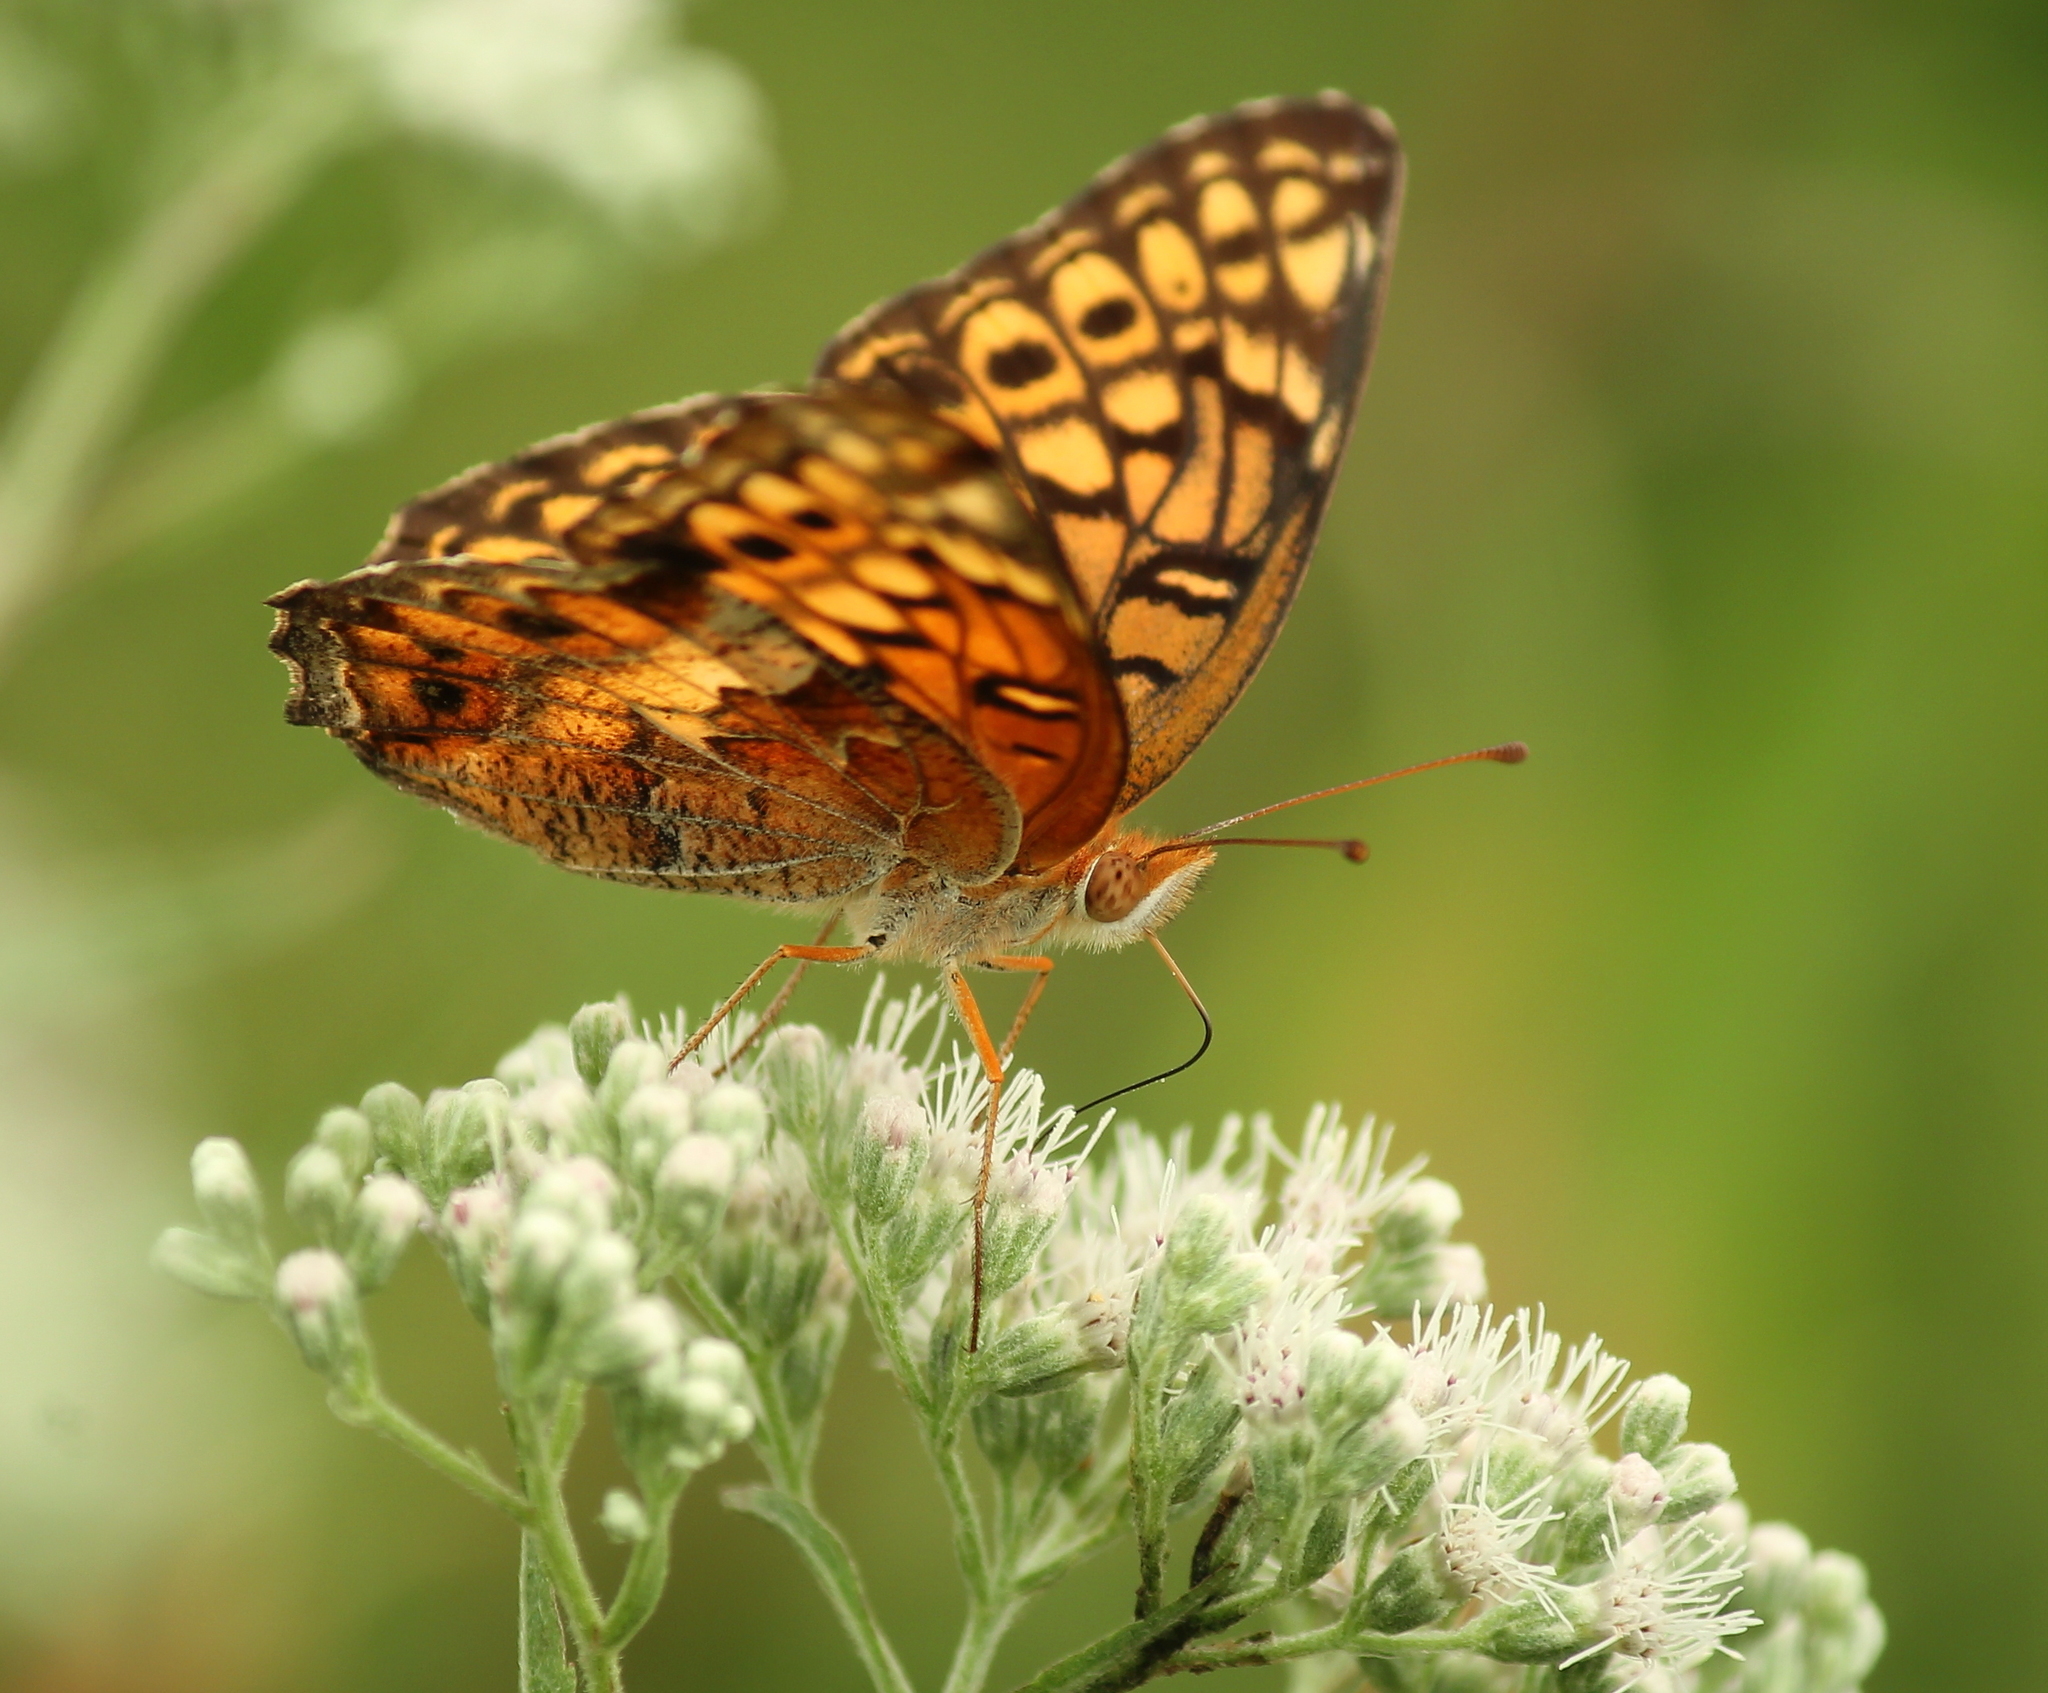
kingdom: Animalia
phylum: Arthropoda
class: Insecta
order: Lepidoptera
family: Nymphalidae
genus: Euptoieta
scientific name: Euptoieta claudia
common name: Variegated fritillary
